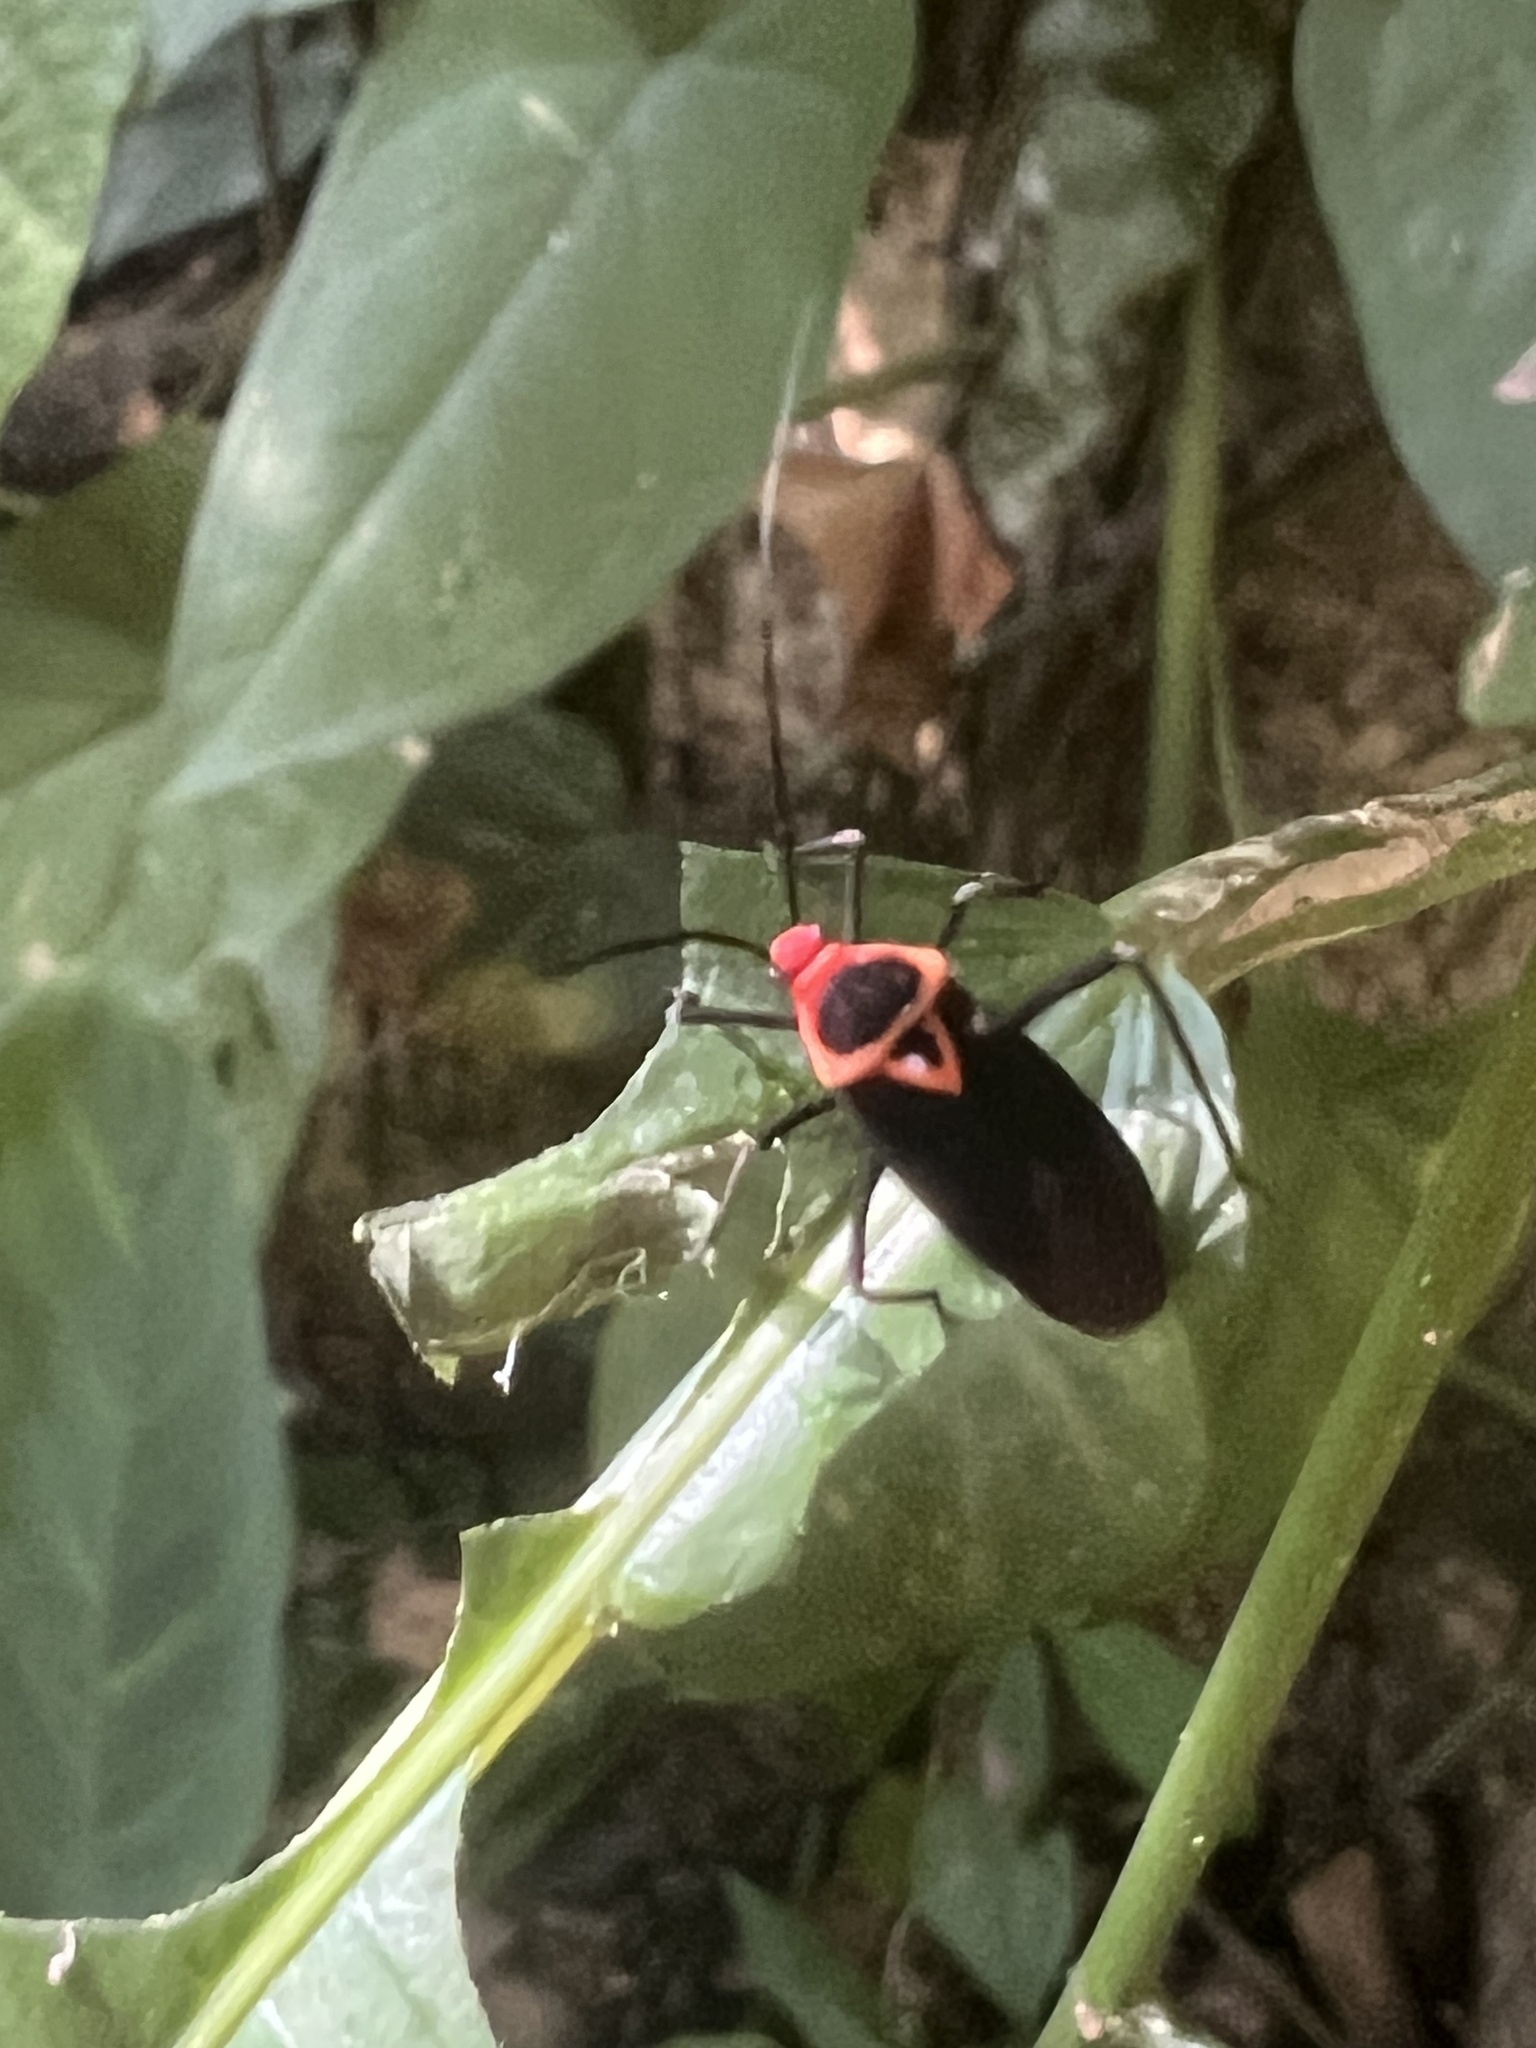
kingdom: Animalia
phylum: Arthropoda
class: Insecta
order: Hemiptera
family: Miridae
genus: Callichila
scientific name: Callichila plagigera
